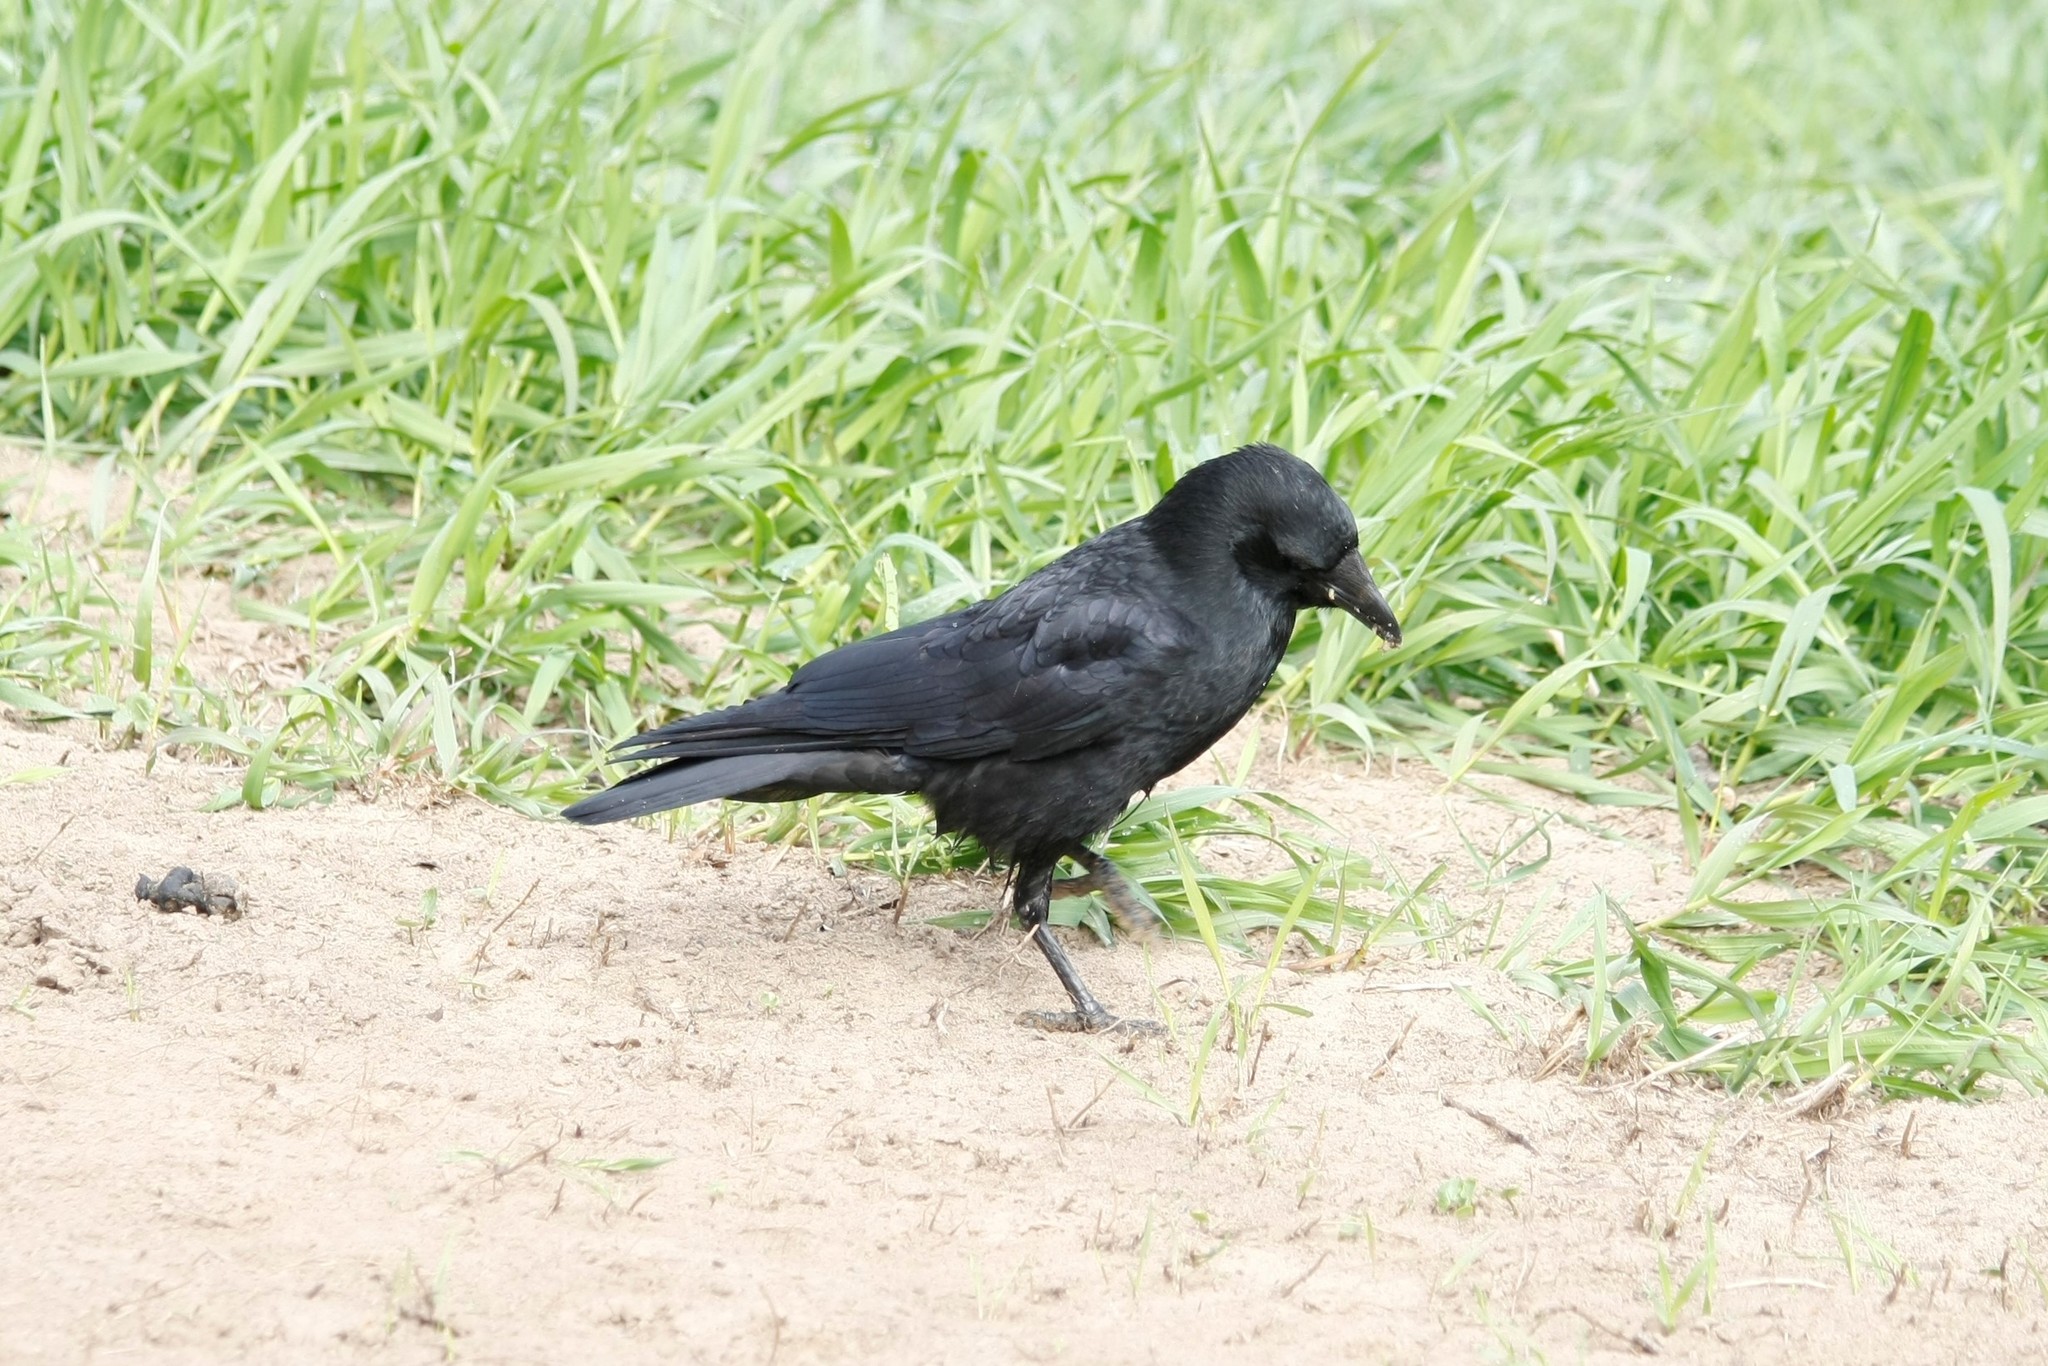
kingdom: Animalia
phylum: Chordata
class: Aves
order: Passeriformes
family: Corvidae
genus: Corvus
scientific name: Corvus corone
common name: Carrion crow
